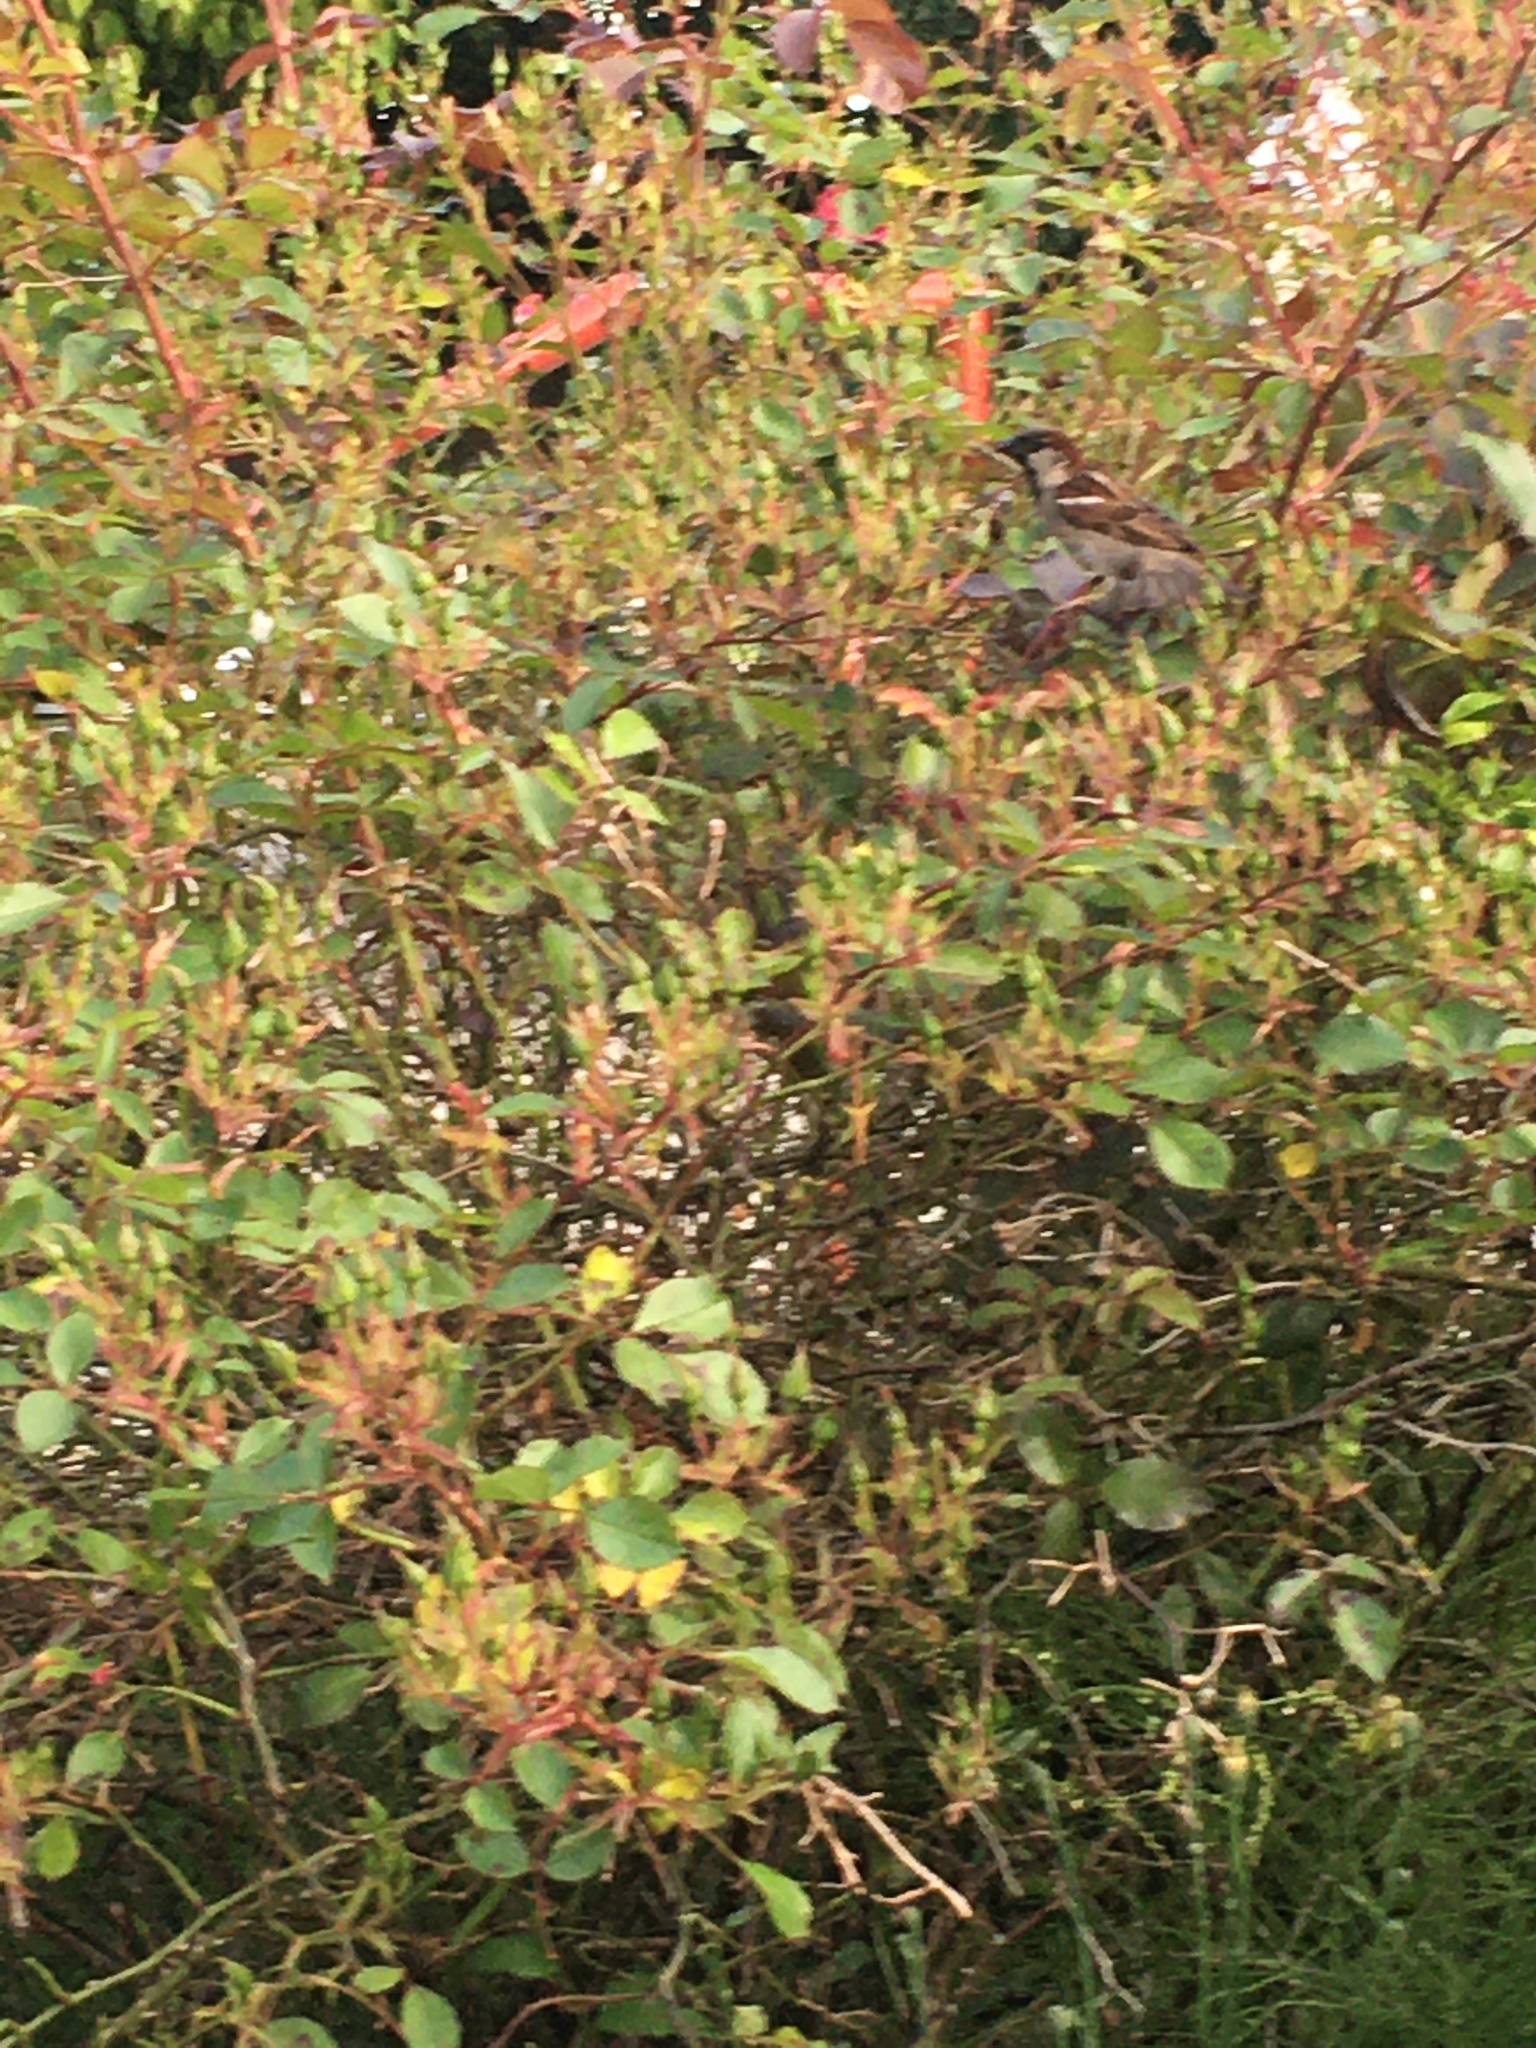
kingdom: Animalia
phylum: Chordata
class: Aves
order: Passeriformes
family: Passeridae
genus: Passer
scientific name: Passer domesticus
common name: House sparrow
